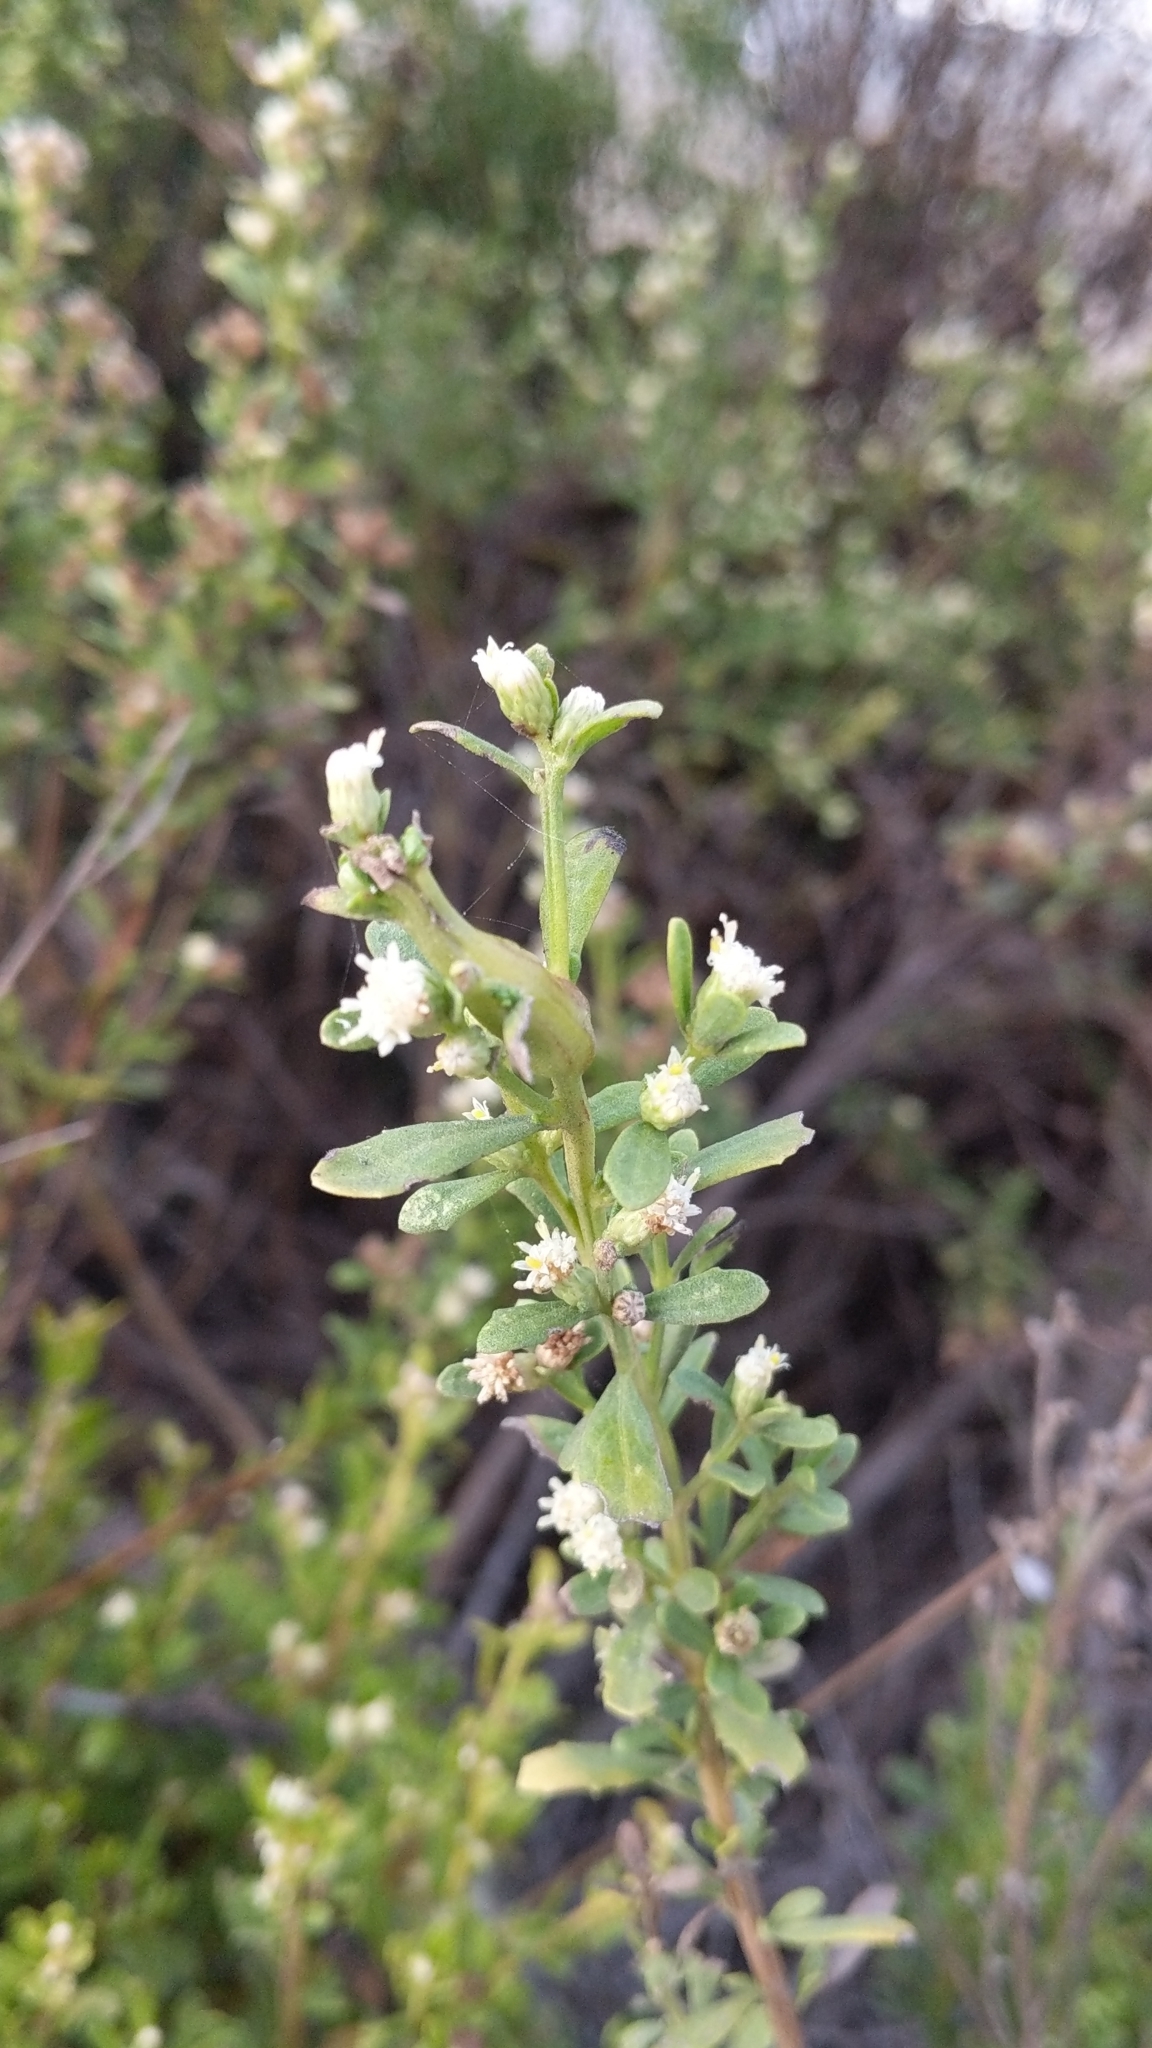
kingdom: Plantae
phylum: Tracheophyta
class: Magnoliopsida
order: Asterales
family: Asteraceae
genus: Baccharis
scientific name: Baccharis pilularis
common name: Coyotebrush
